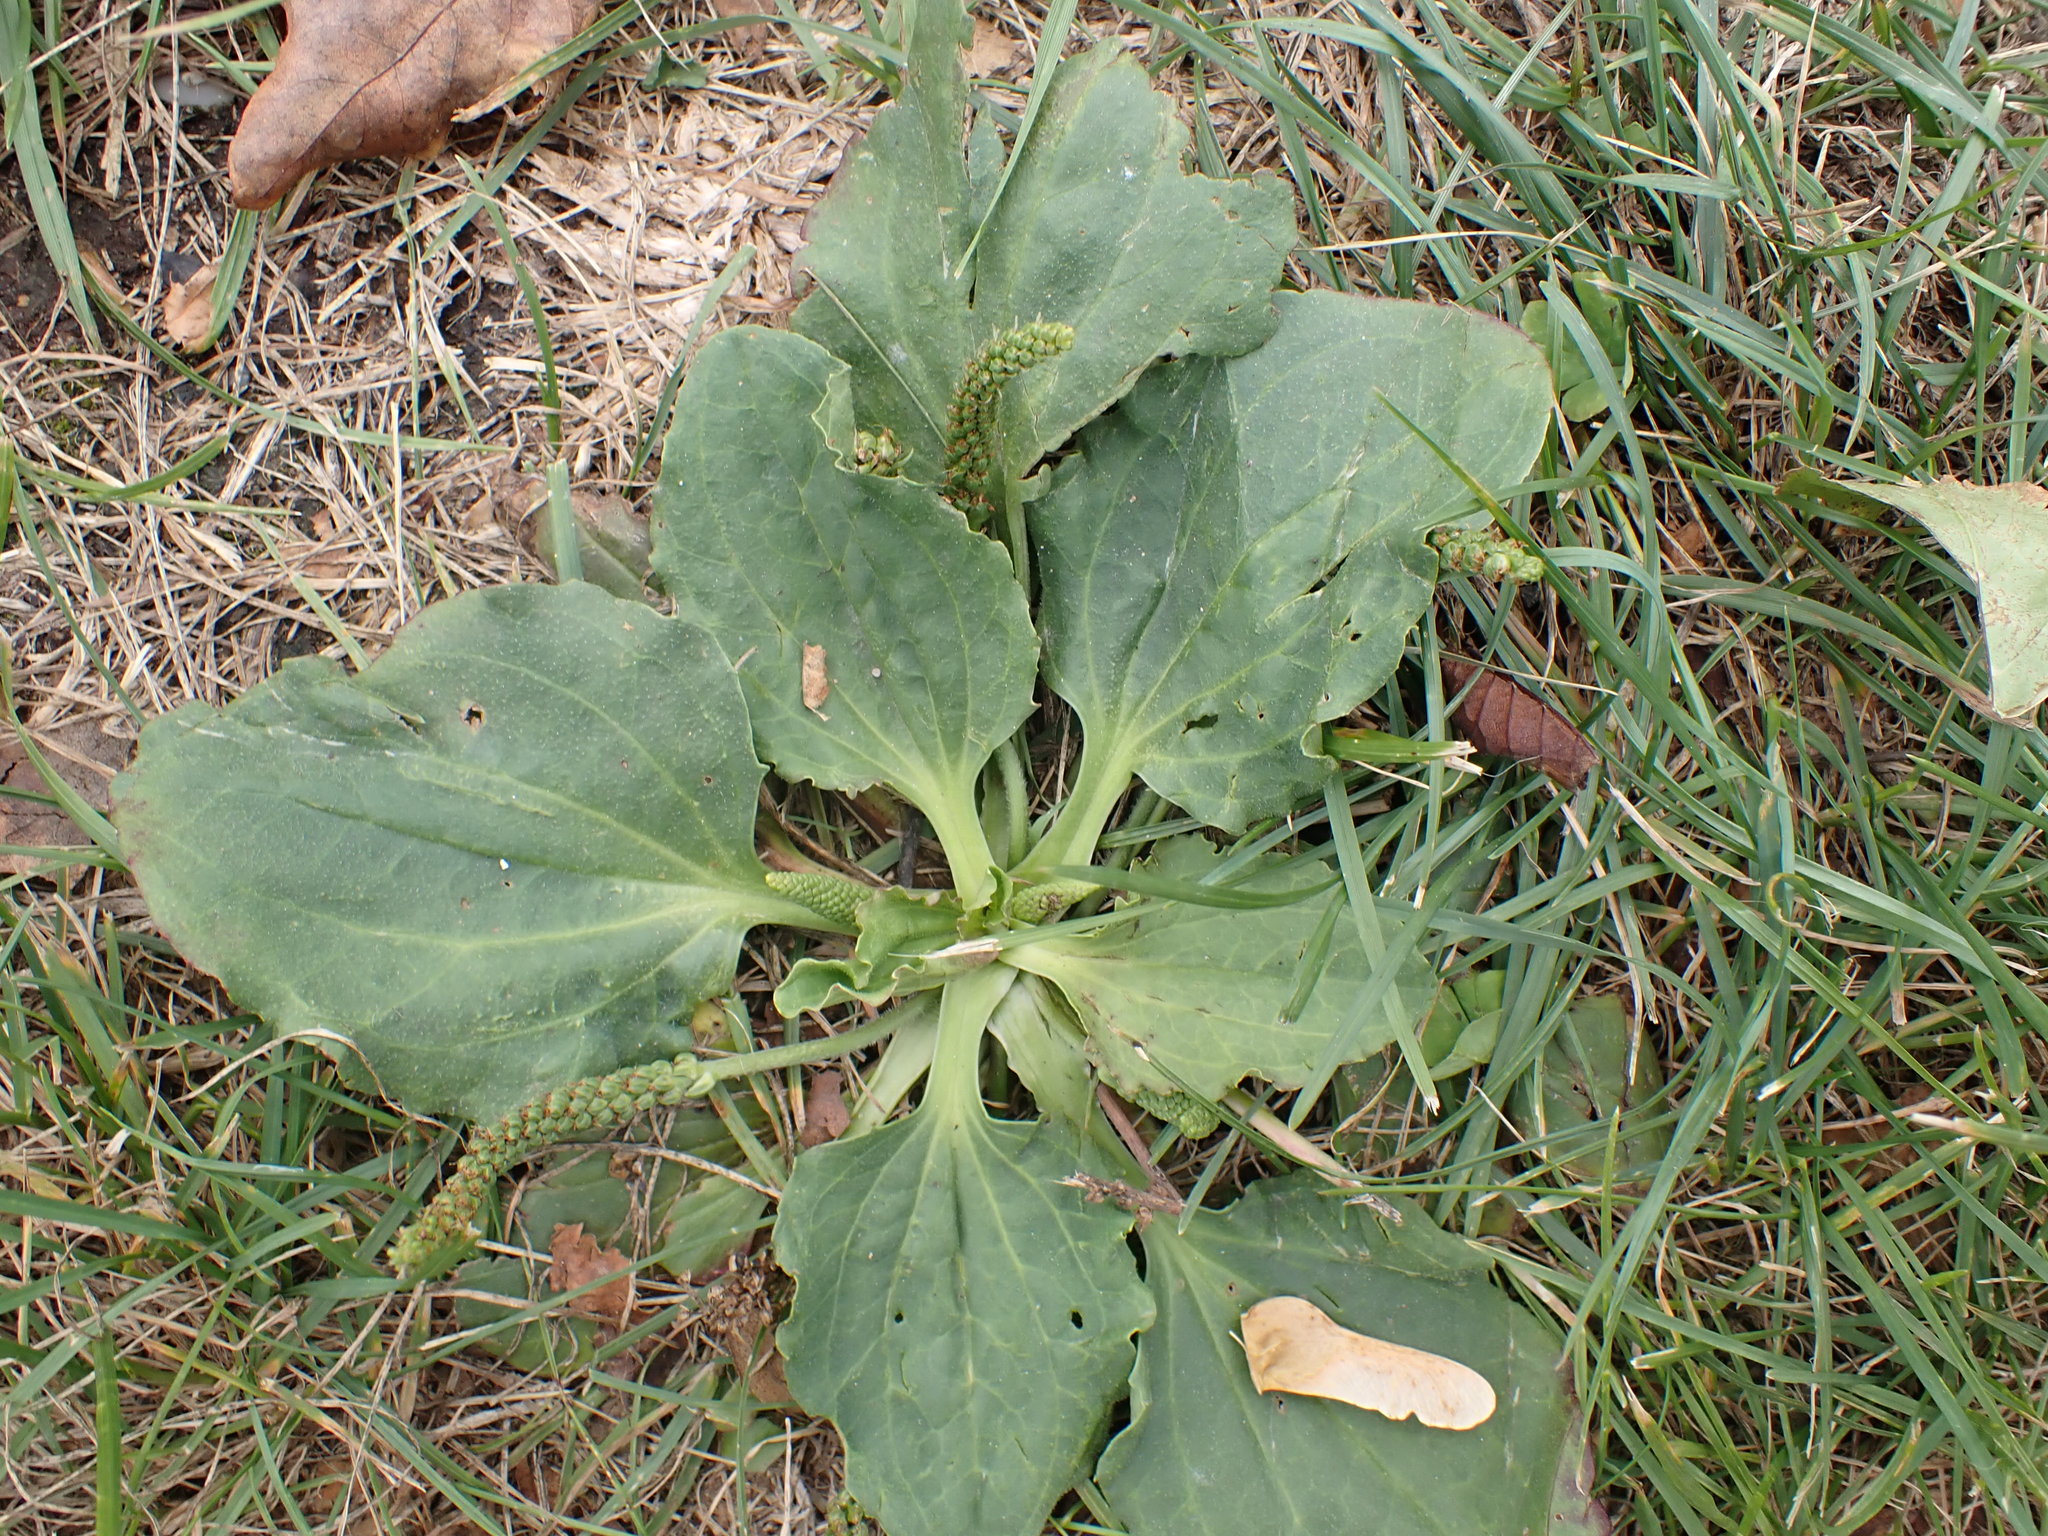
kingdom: Plantae
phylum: Tracheophyta
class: Magnoliopsida
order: Lamiales
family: Plantaginaceae
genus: Plantago
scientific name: Plantago major
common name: Common plantain
